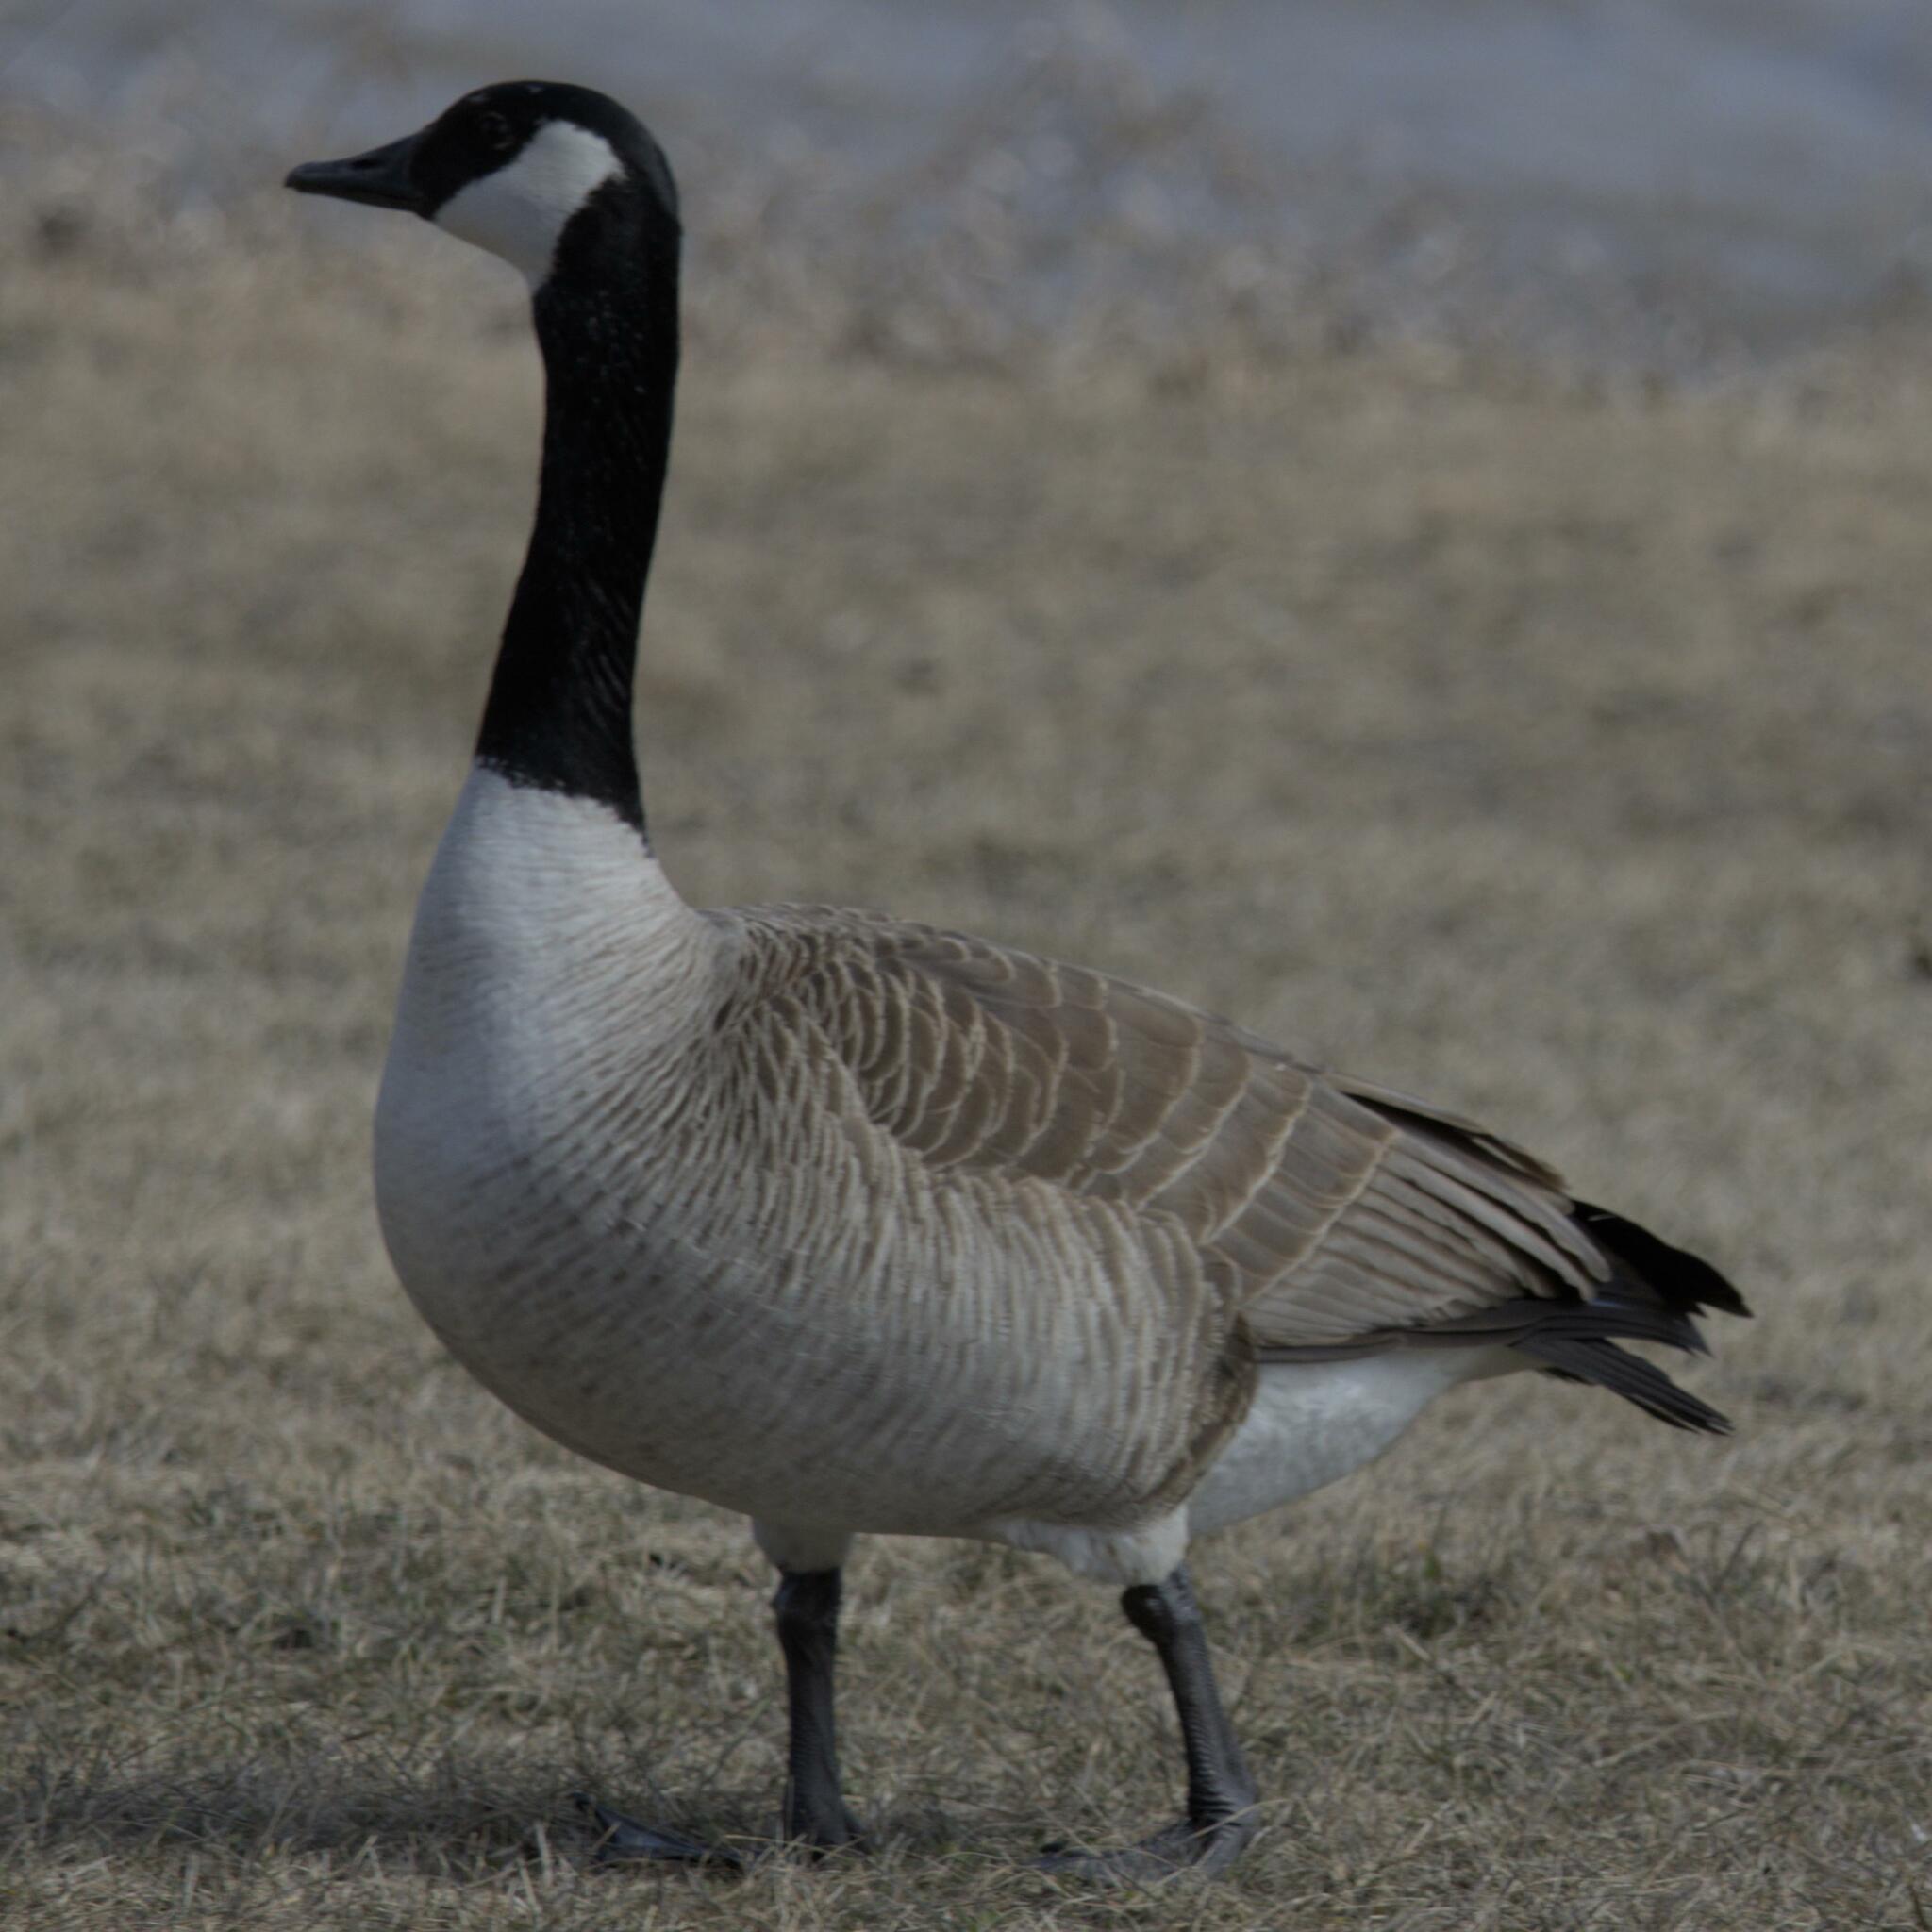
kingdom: Animalia
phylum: Chordata
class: Aves
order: Anseriformes
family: Anatidae
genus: Branta
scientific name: Branta canadensis
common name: Canada goose
